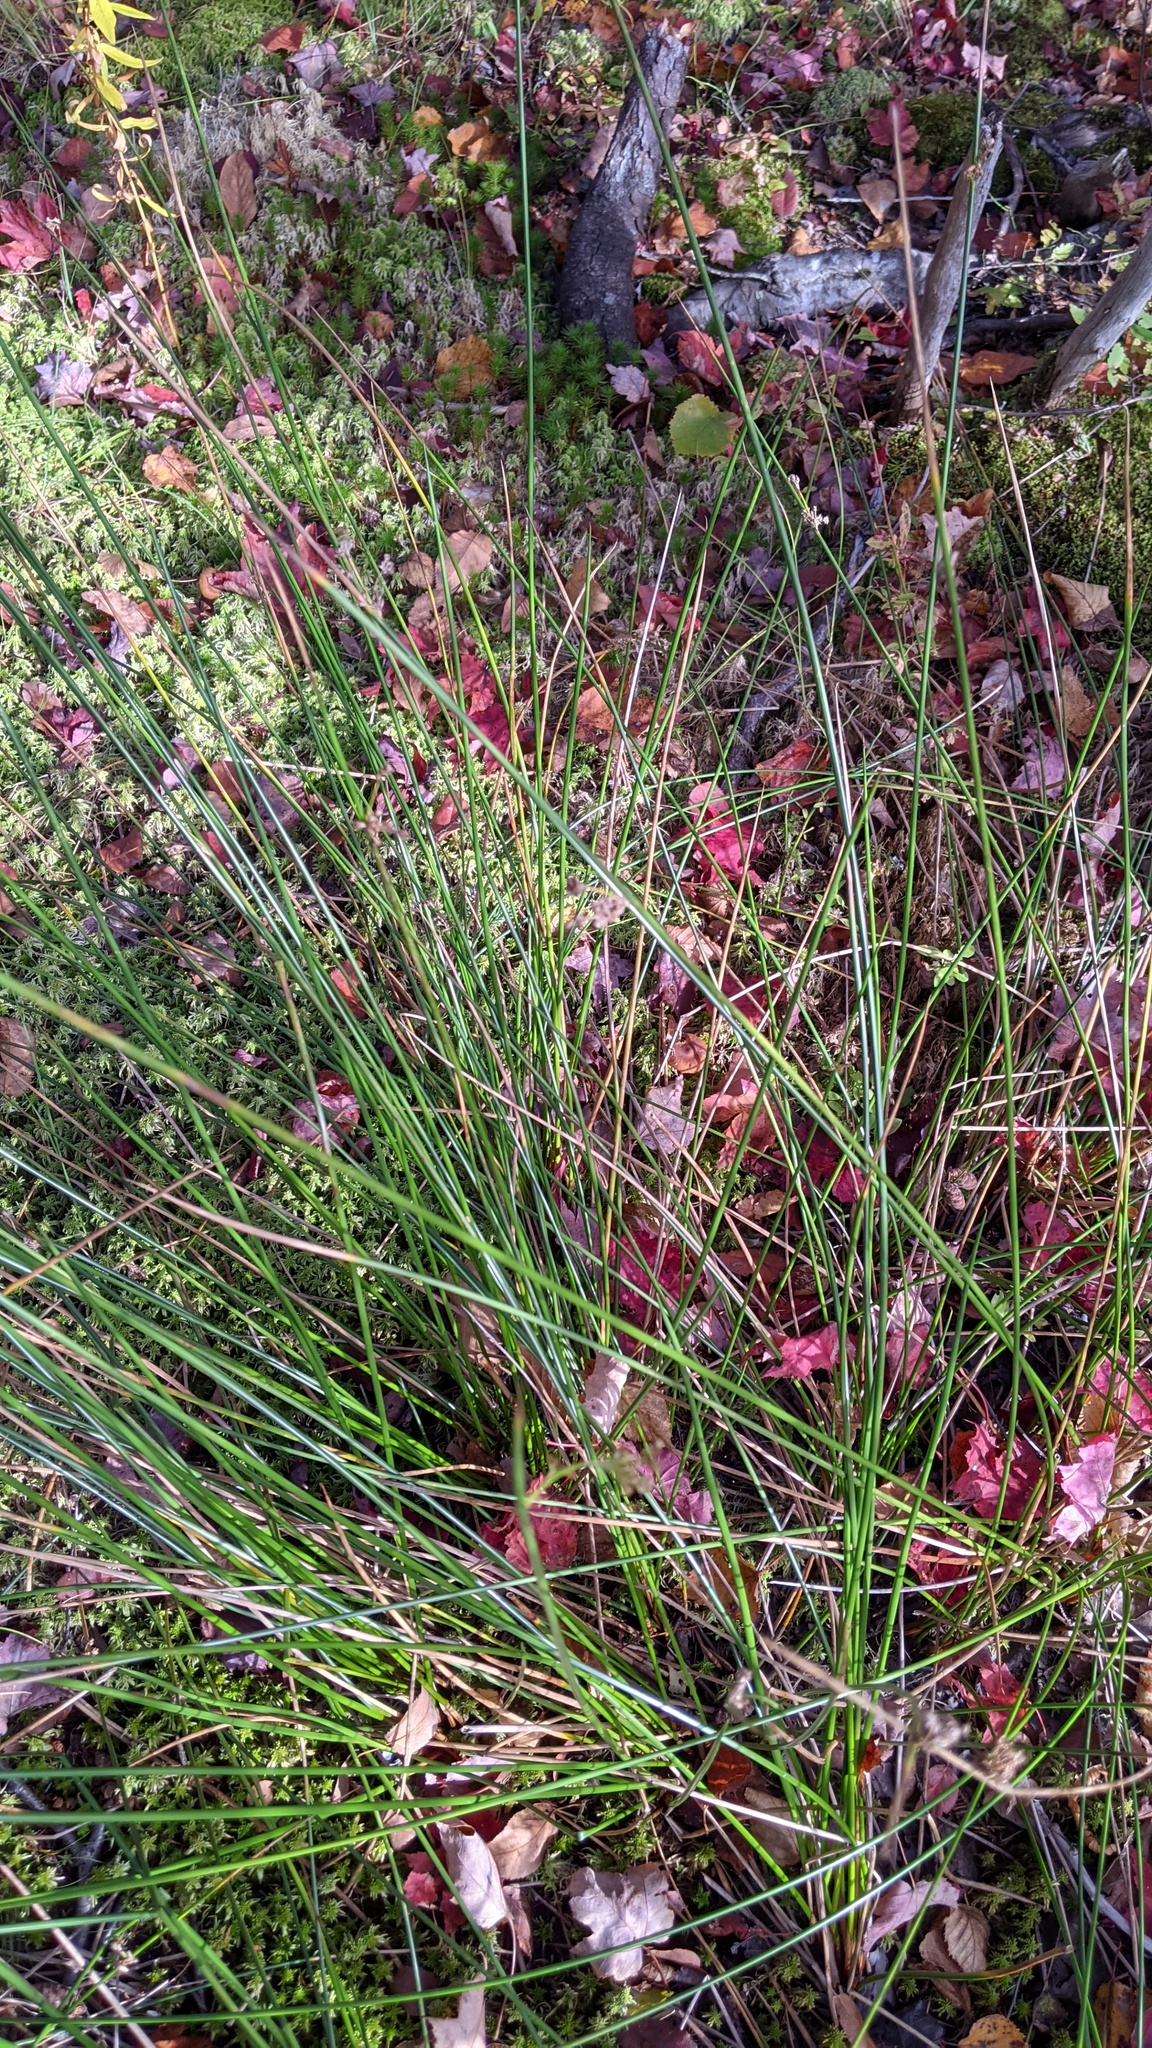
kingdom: Plantae
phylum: Tracheophyta
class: Liliopsida
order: Poales
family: Juncaceae
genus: Juncus
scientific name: Juncus effusus
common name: Soft rush
